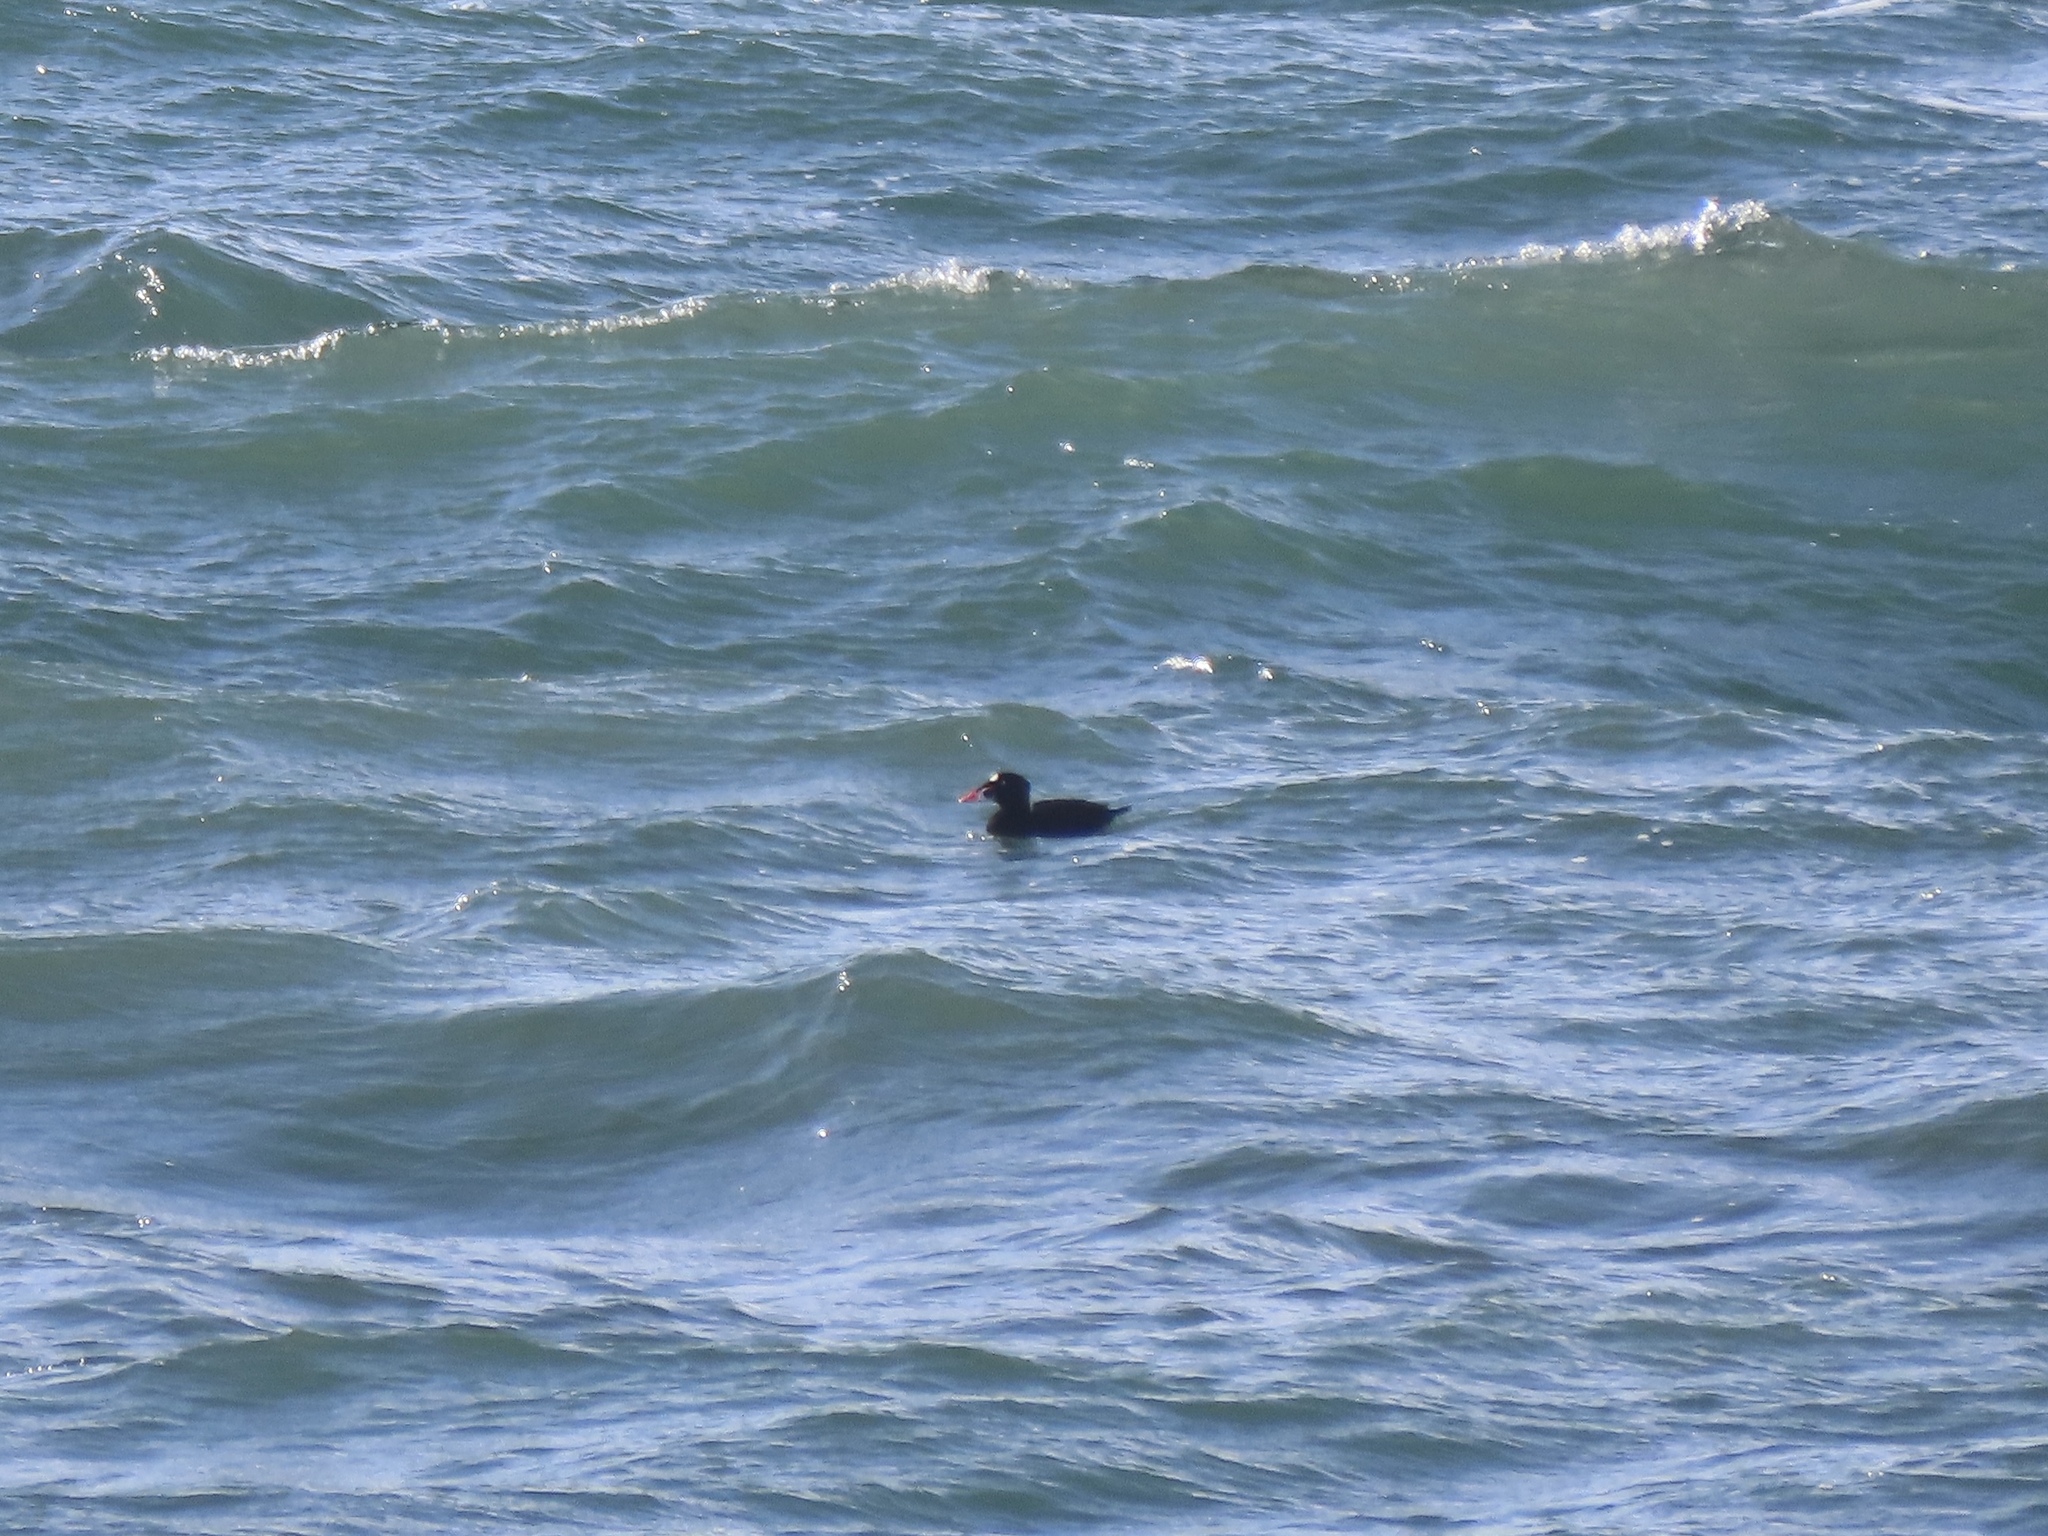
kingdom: Animalia
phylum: Chordata
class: Aves
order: Anseriformes
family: Anatidae
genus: Melanitta
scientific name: Melanitta perspicillata
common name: Surf scoter
